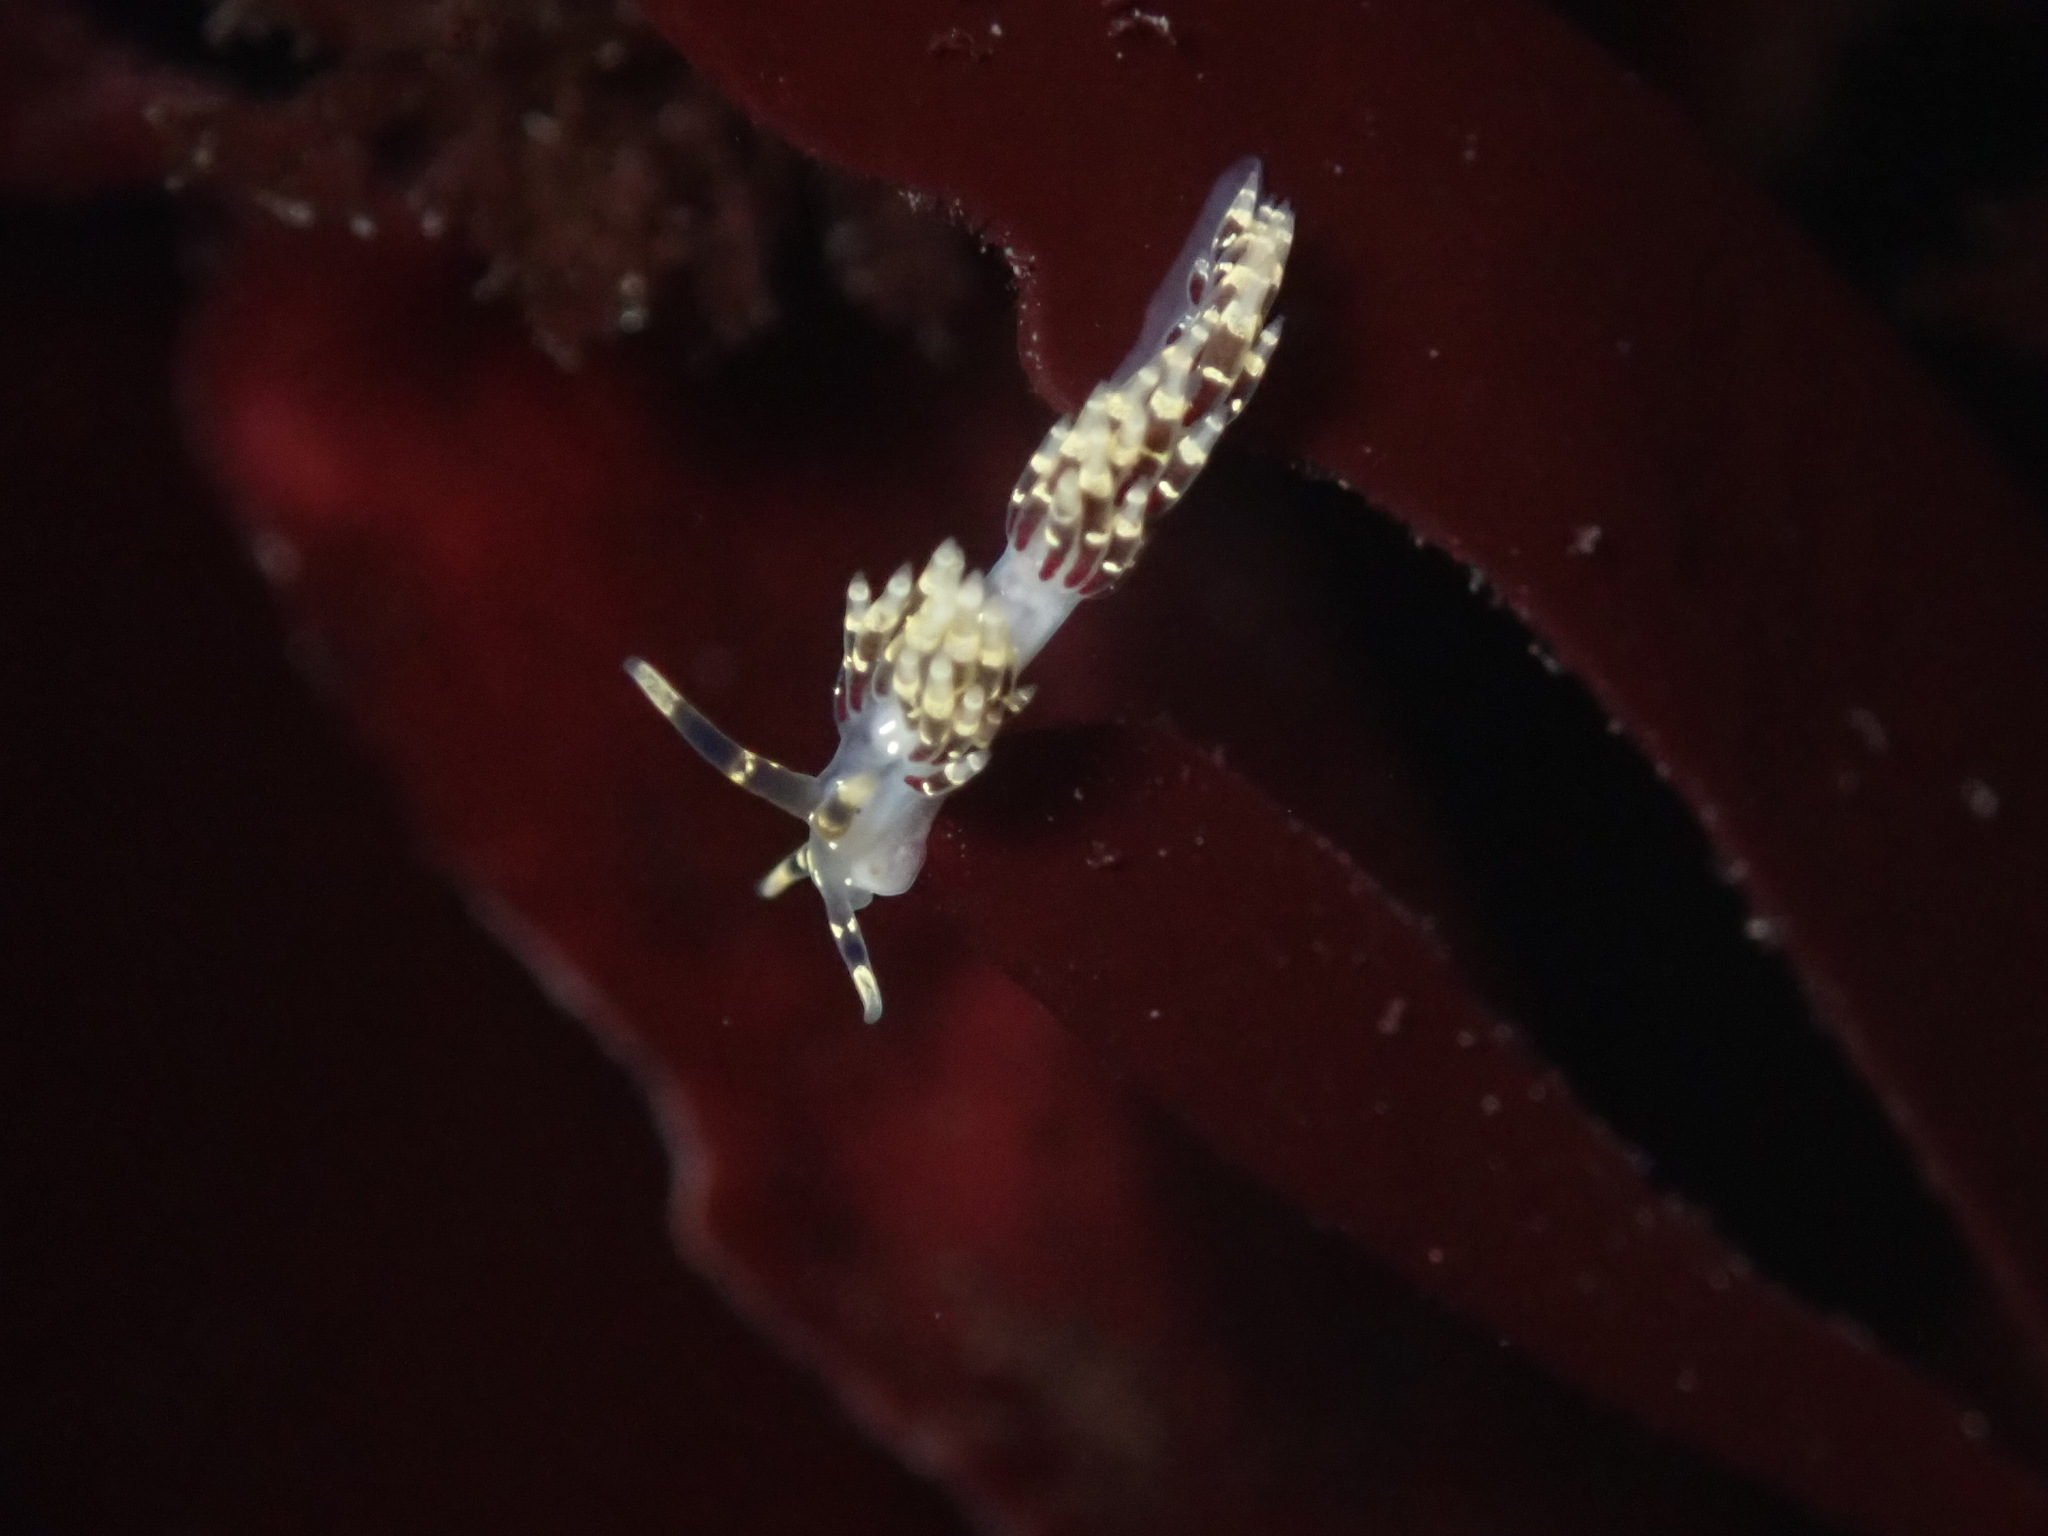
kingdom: Animalia
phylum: Mollusca
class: Gastropoda
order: Nudibranchia
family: Abronicidae
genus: Abronica
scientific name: Abronica abronia
